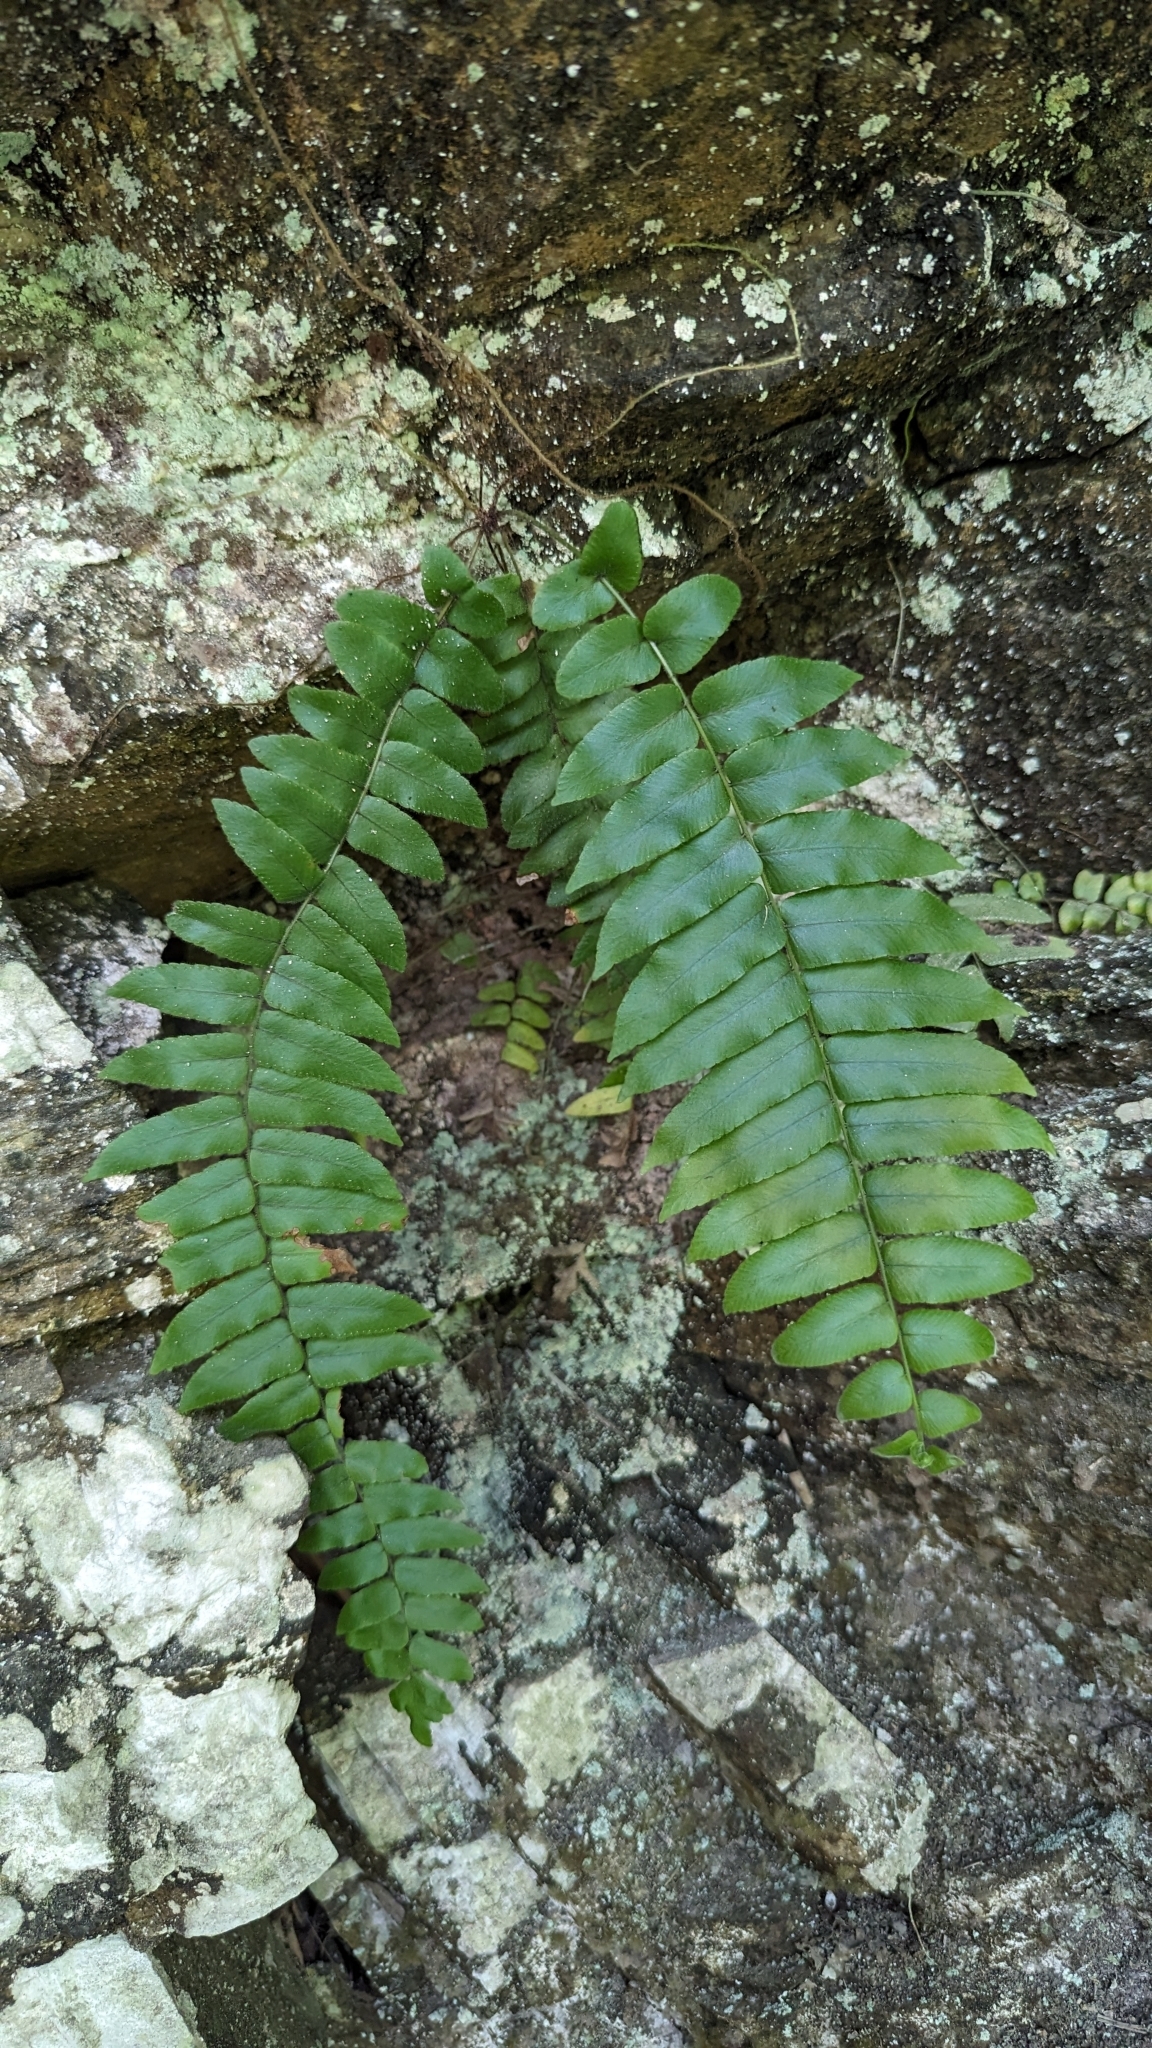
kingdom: Plantae
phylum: Tracheophyta
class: Polypodiopsida
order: Polypodiales
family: Nephrolepidaceae
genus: Nephrolepis
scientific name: Nephrolepis biserrata
